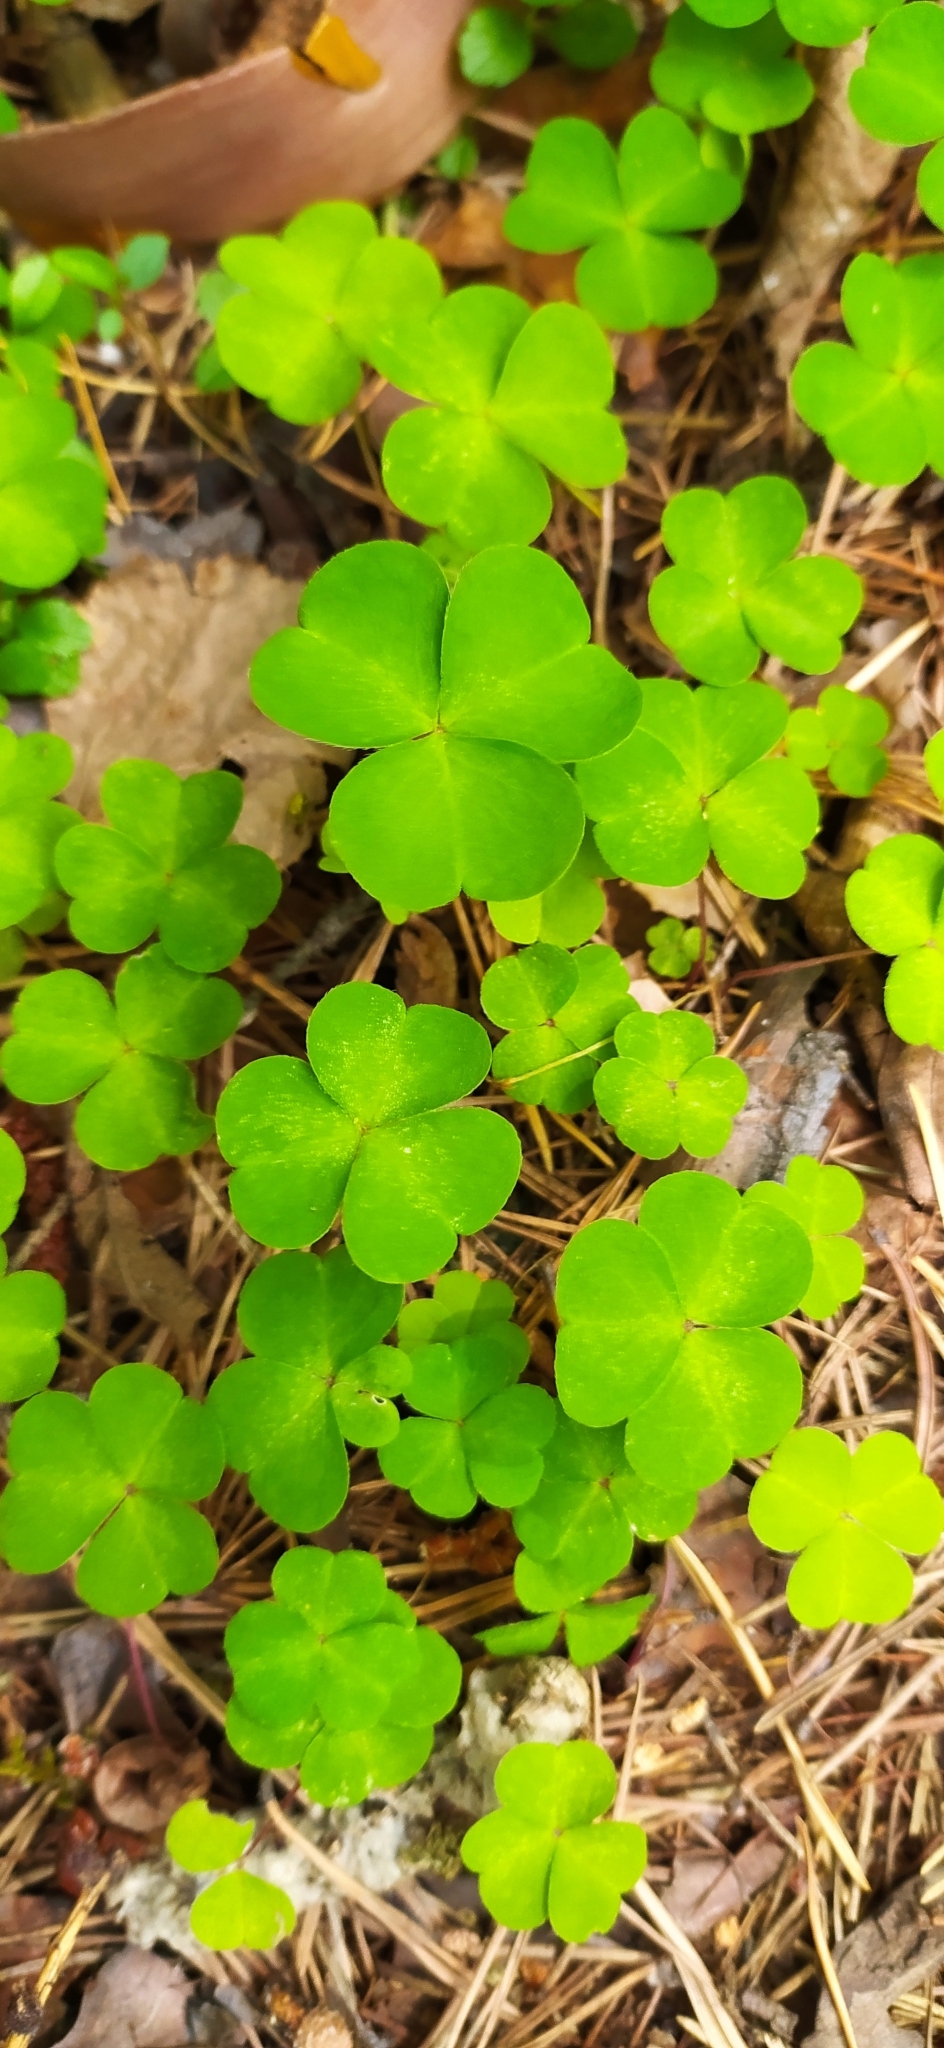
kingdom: Plantae
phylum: Tracheophyta
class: Magnoliopsida
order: Oxalidales
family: Oxalidaceae
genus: Oxalis
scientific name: Oxalis acetosella
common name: Wood-sorrel
